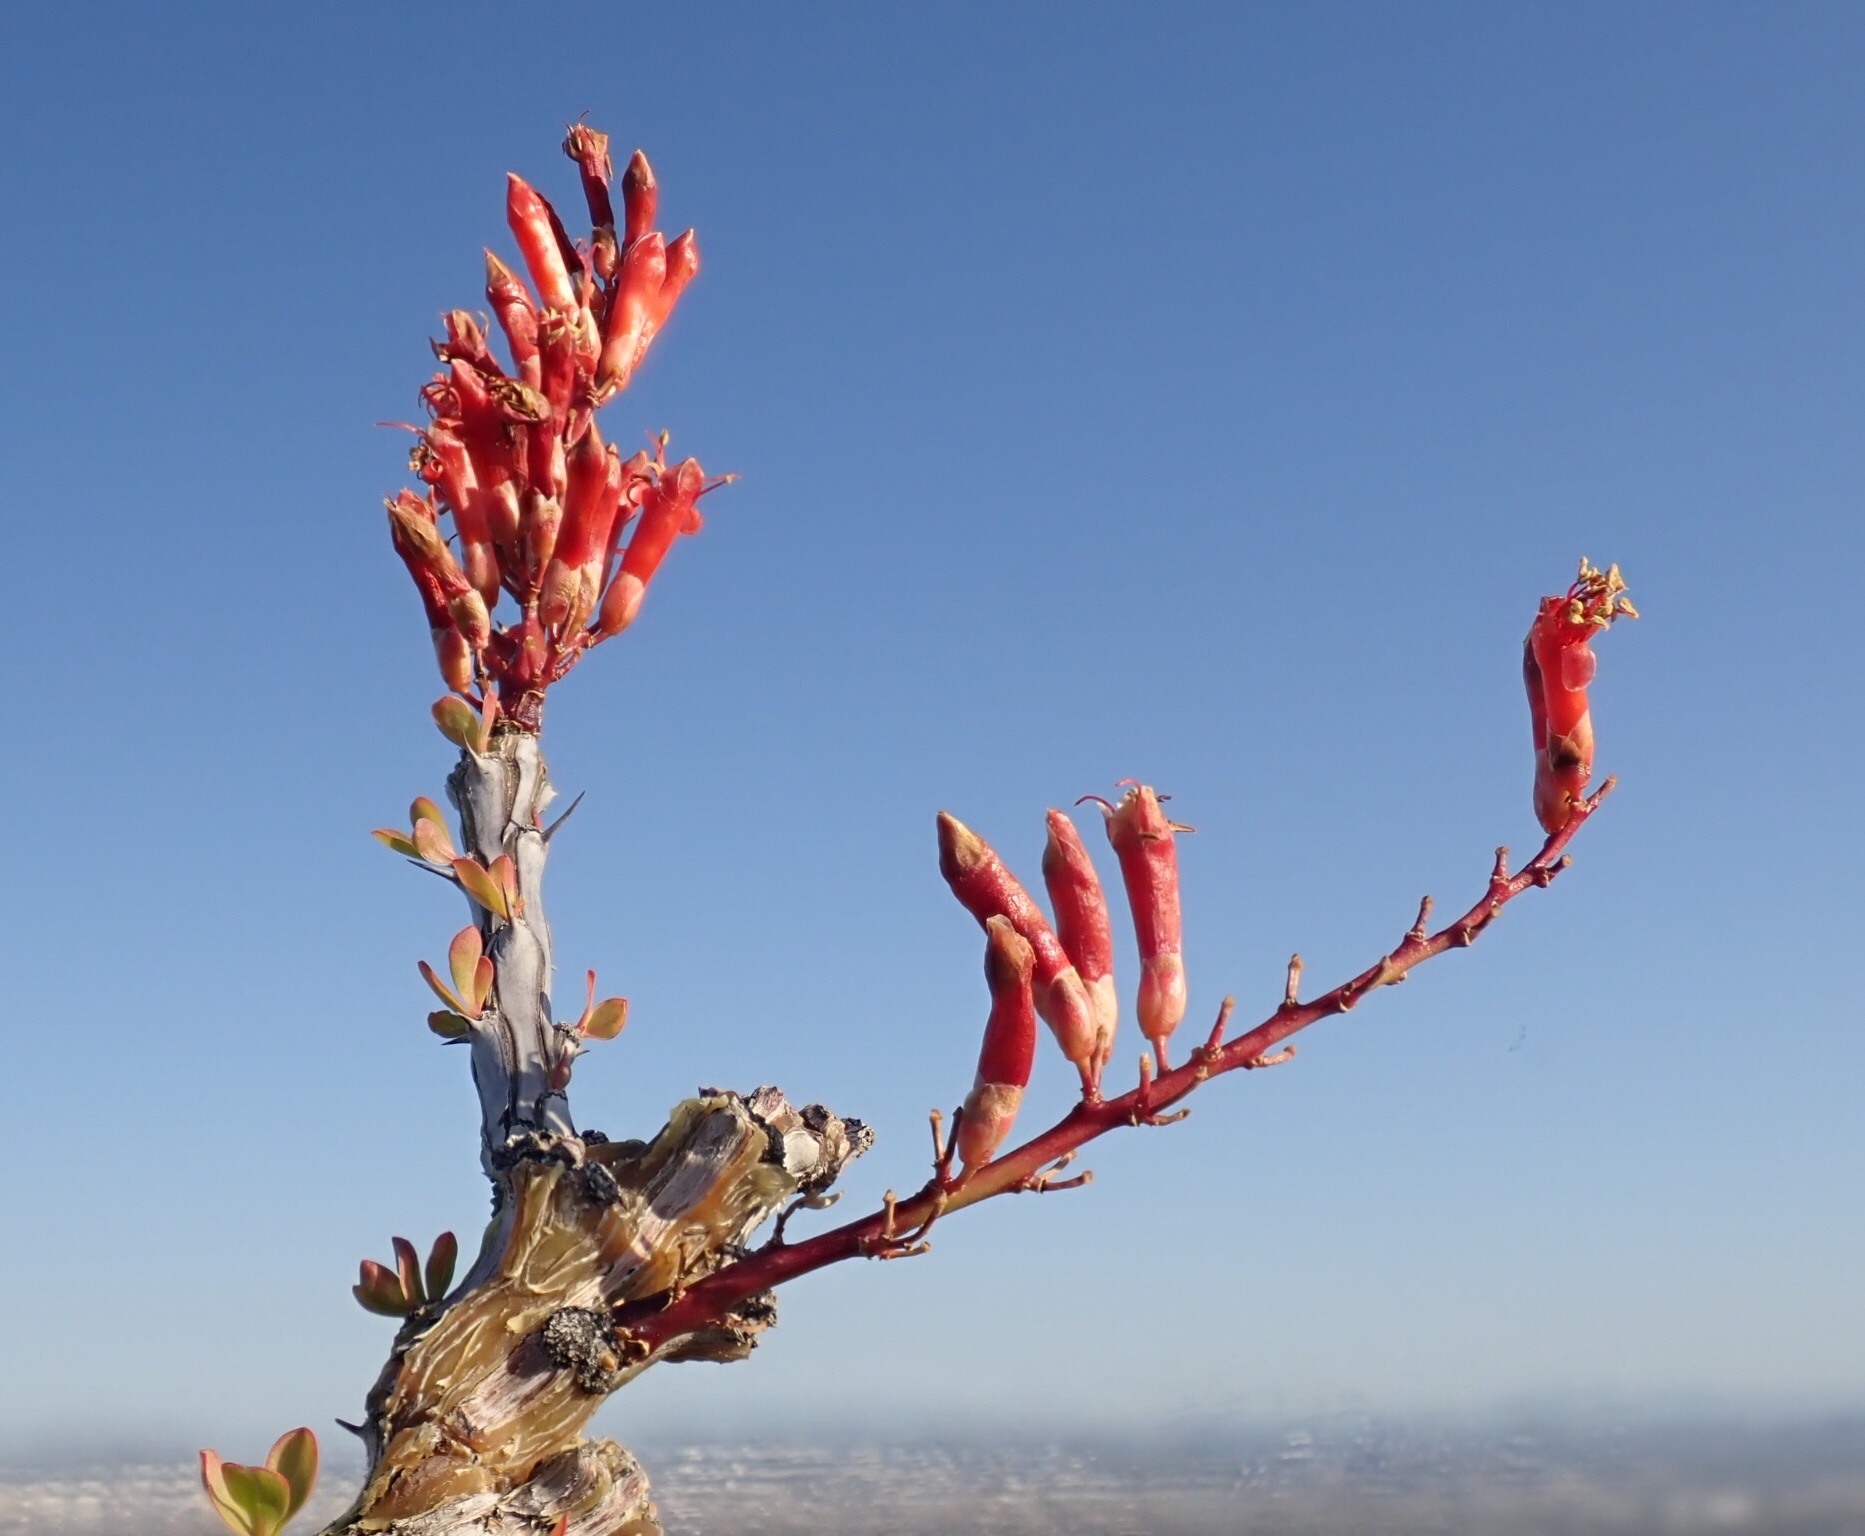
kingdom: Plantae
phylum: Tracheophyta
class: Magnoliopsida
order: Ericales
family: Fouquieriaceae
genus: Fouquieria
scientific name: Fouquieria splendens
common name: Vine-cactus
